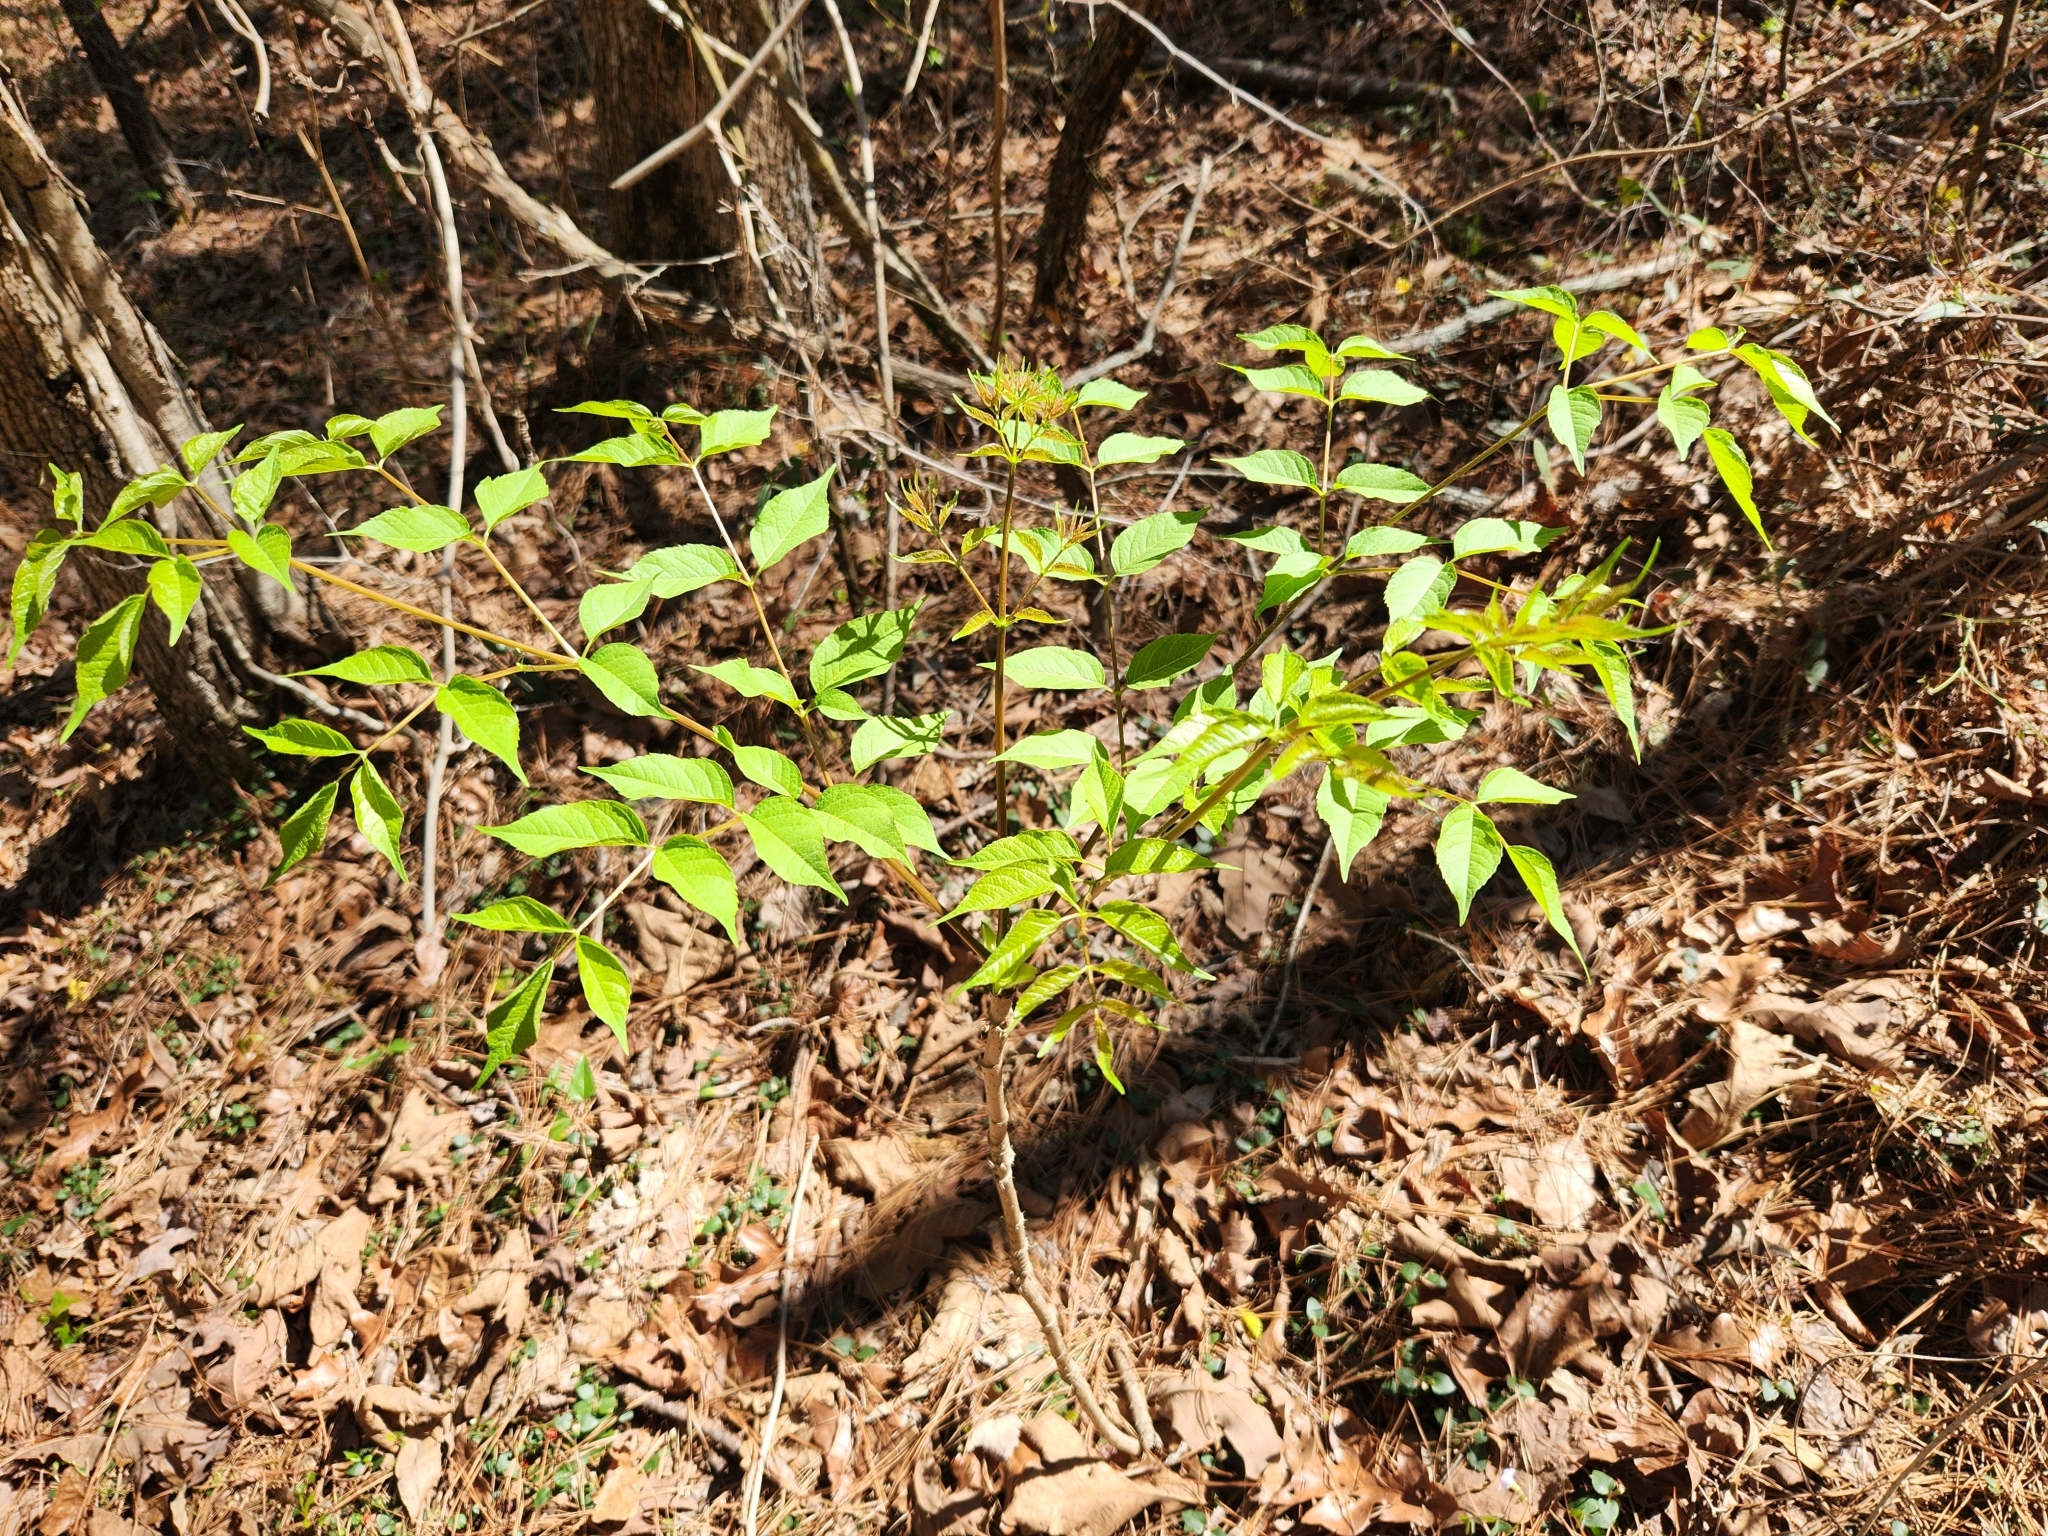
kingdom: Plantae
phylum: Tracheophyta
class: Magnoliopsida
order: Apiales
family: Araliaceae
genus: Aralia
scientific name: Aralia spinosa
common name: Hercules'-club
